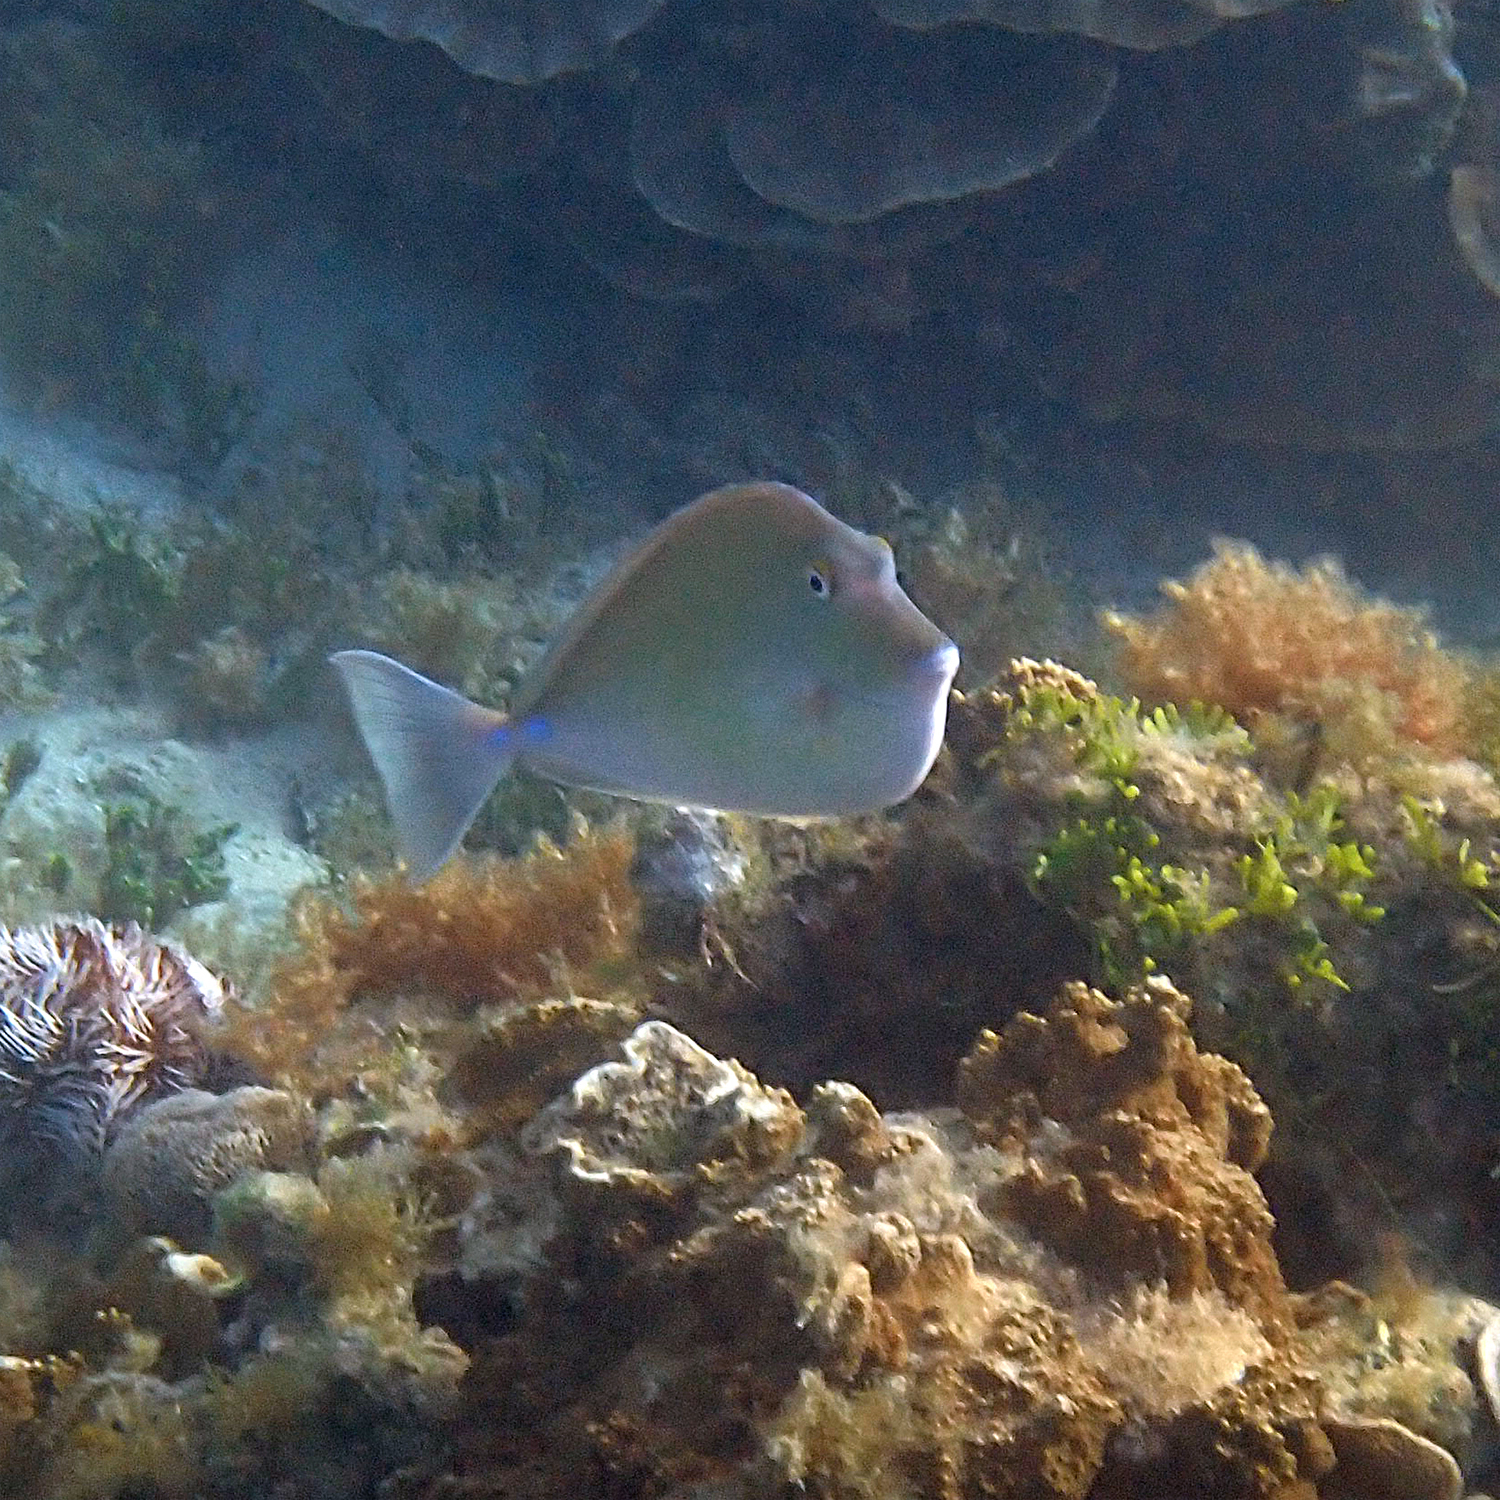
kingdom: Animalia
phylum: Chordata
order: Perciformes
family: Acanthuridae
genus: Naso
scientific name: Naso unicornis
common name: Bluespine unicornfish
